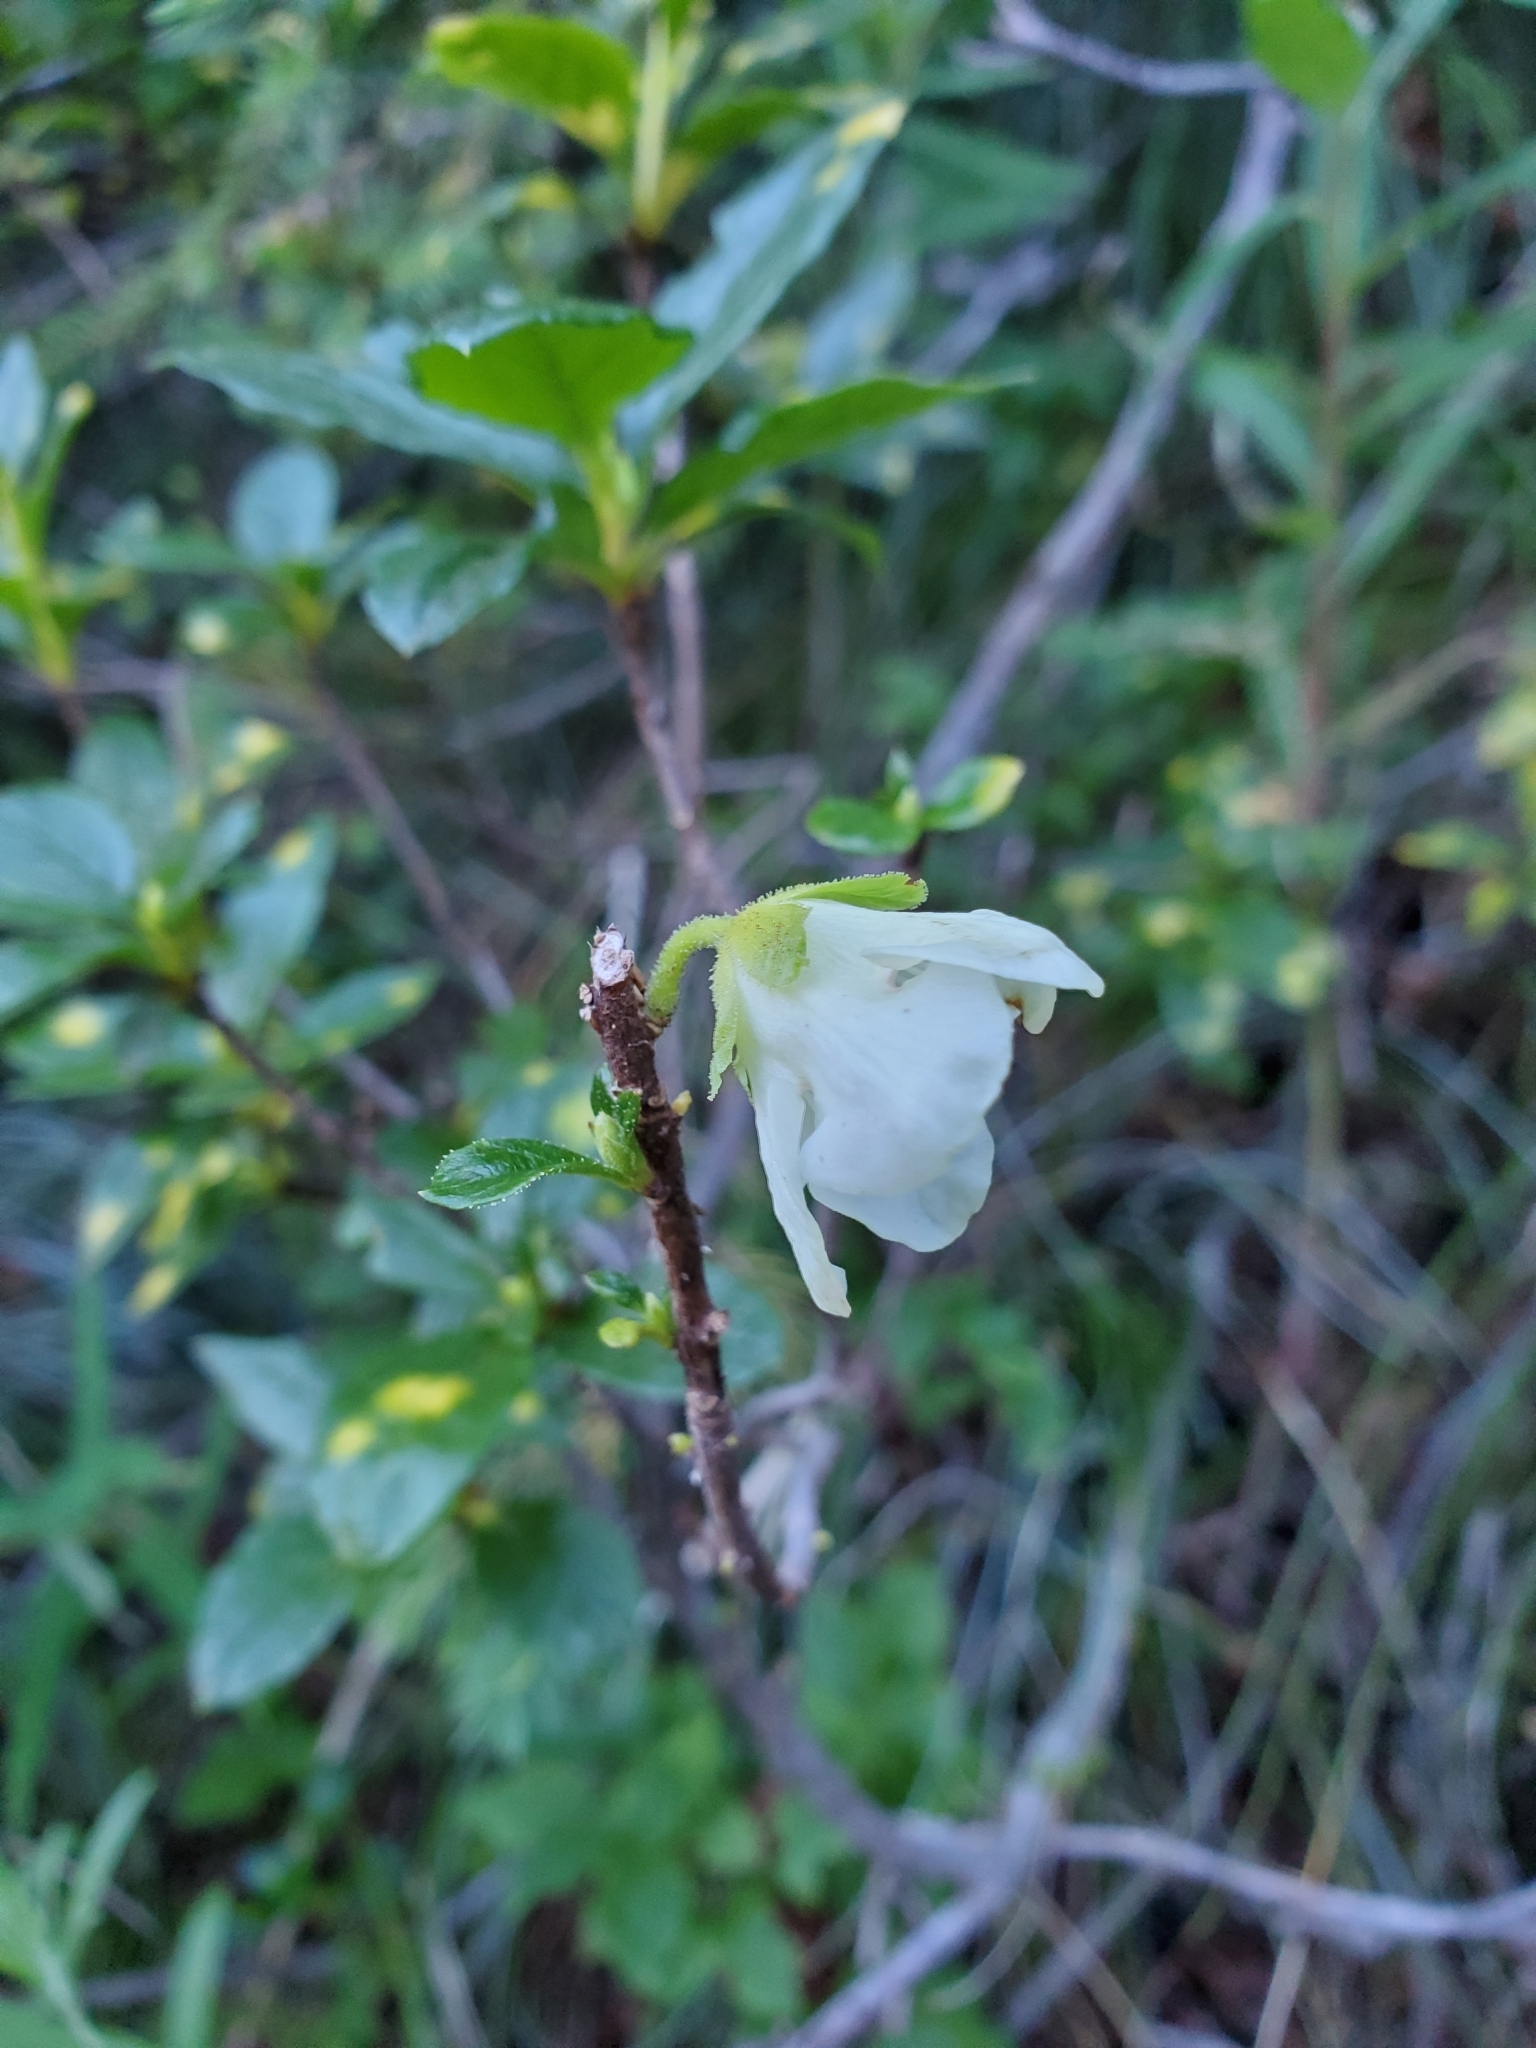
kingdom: Plantae
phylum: Tracheophyta
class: Magnoliopsida
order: Ericales
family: Ericaceae
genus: Rhododendron
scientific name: Rhododendron albiflorum
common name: White rhododendron
